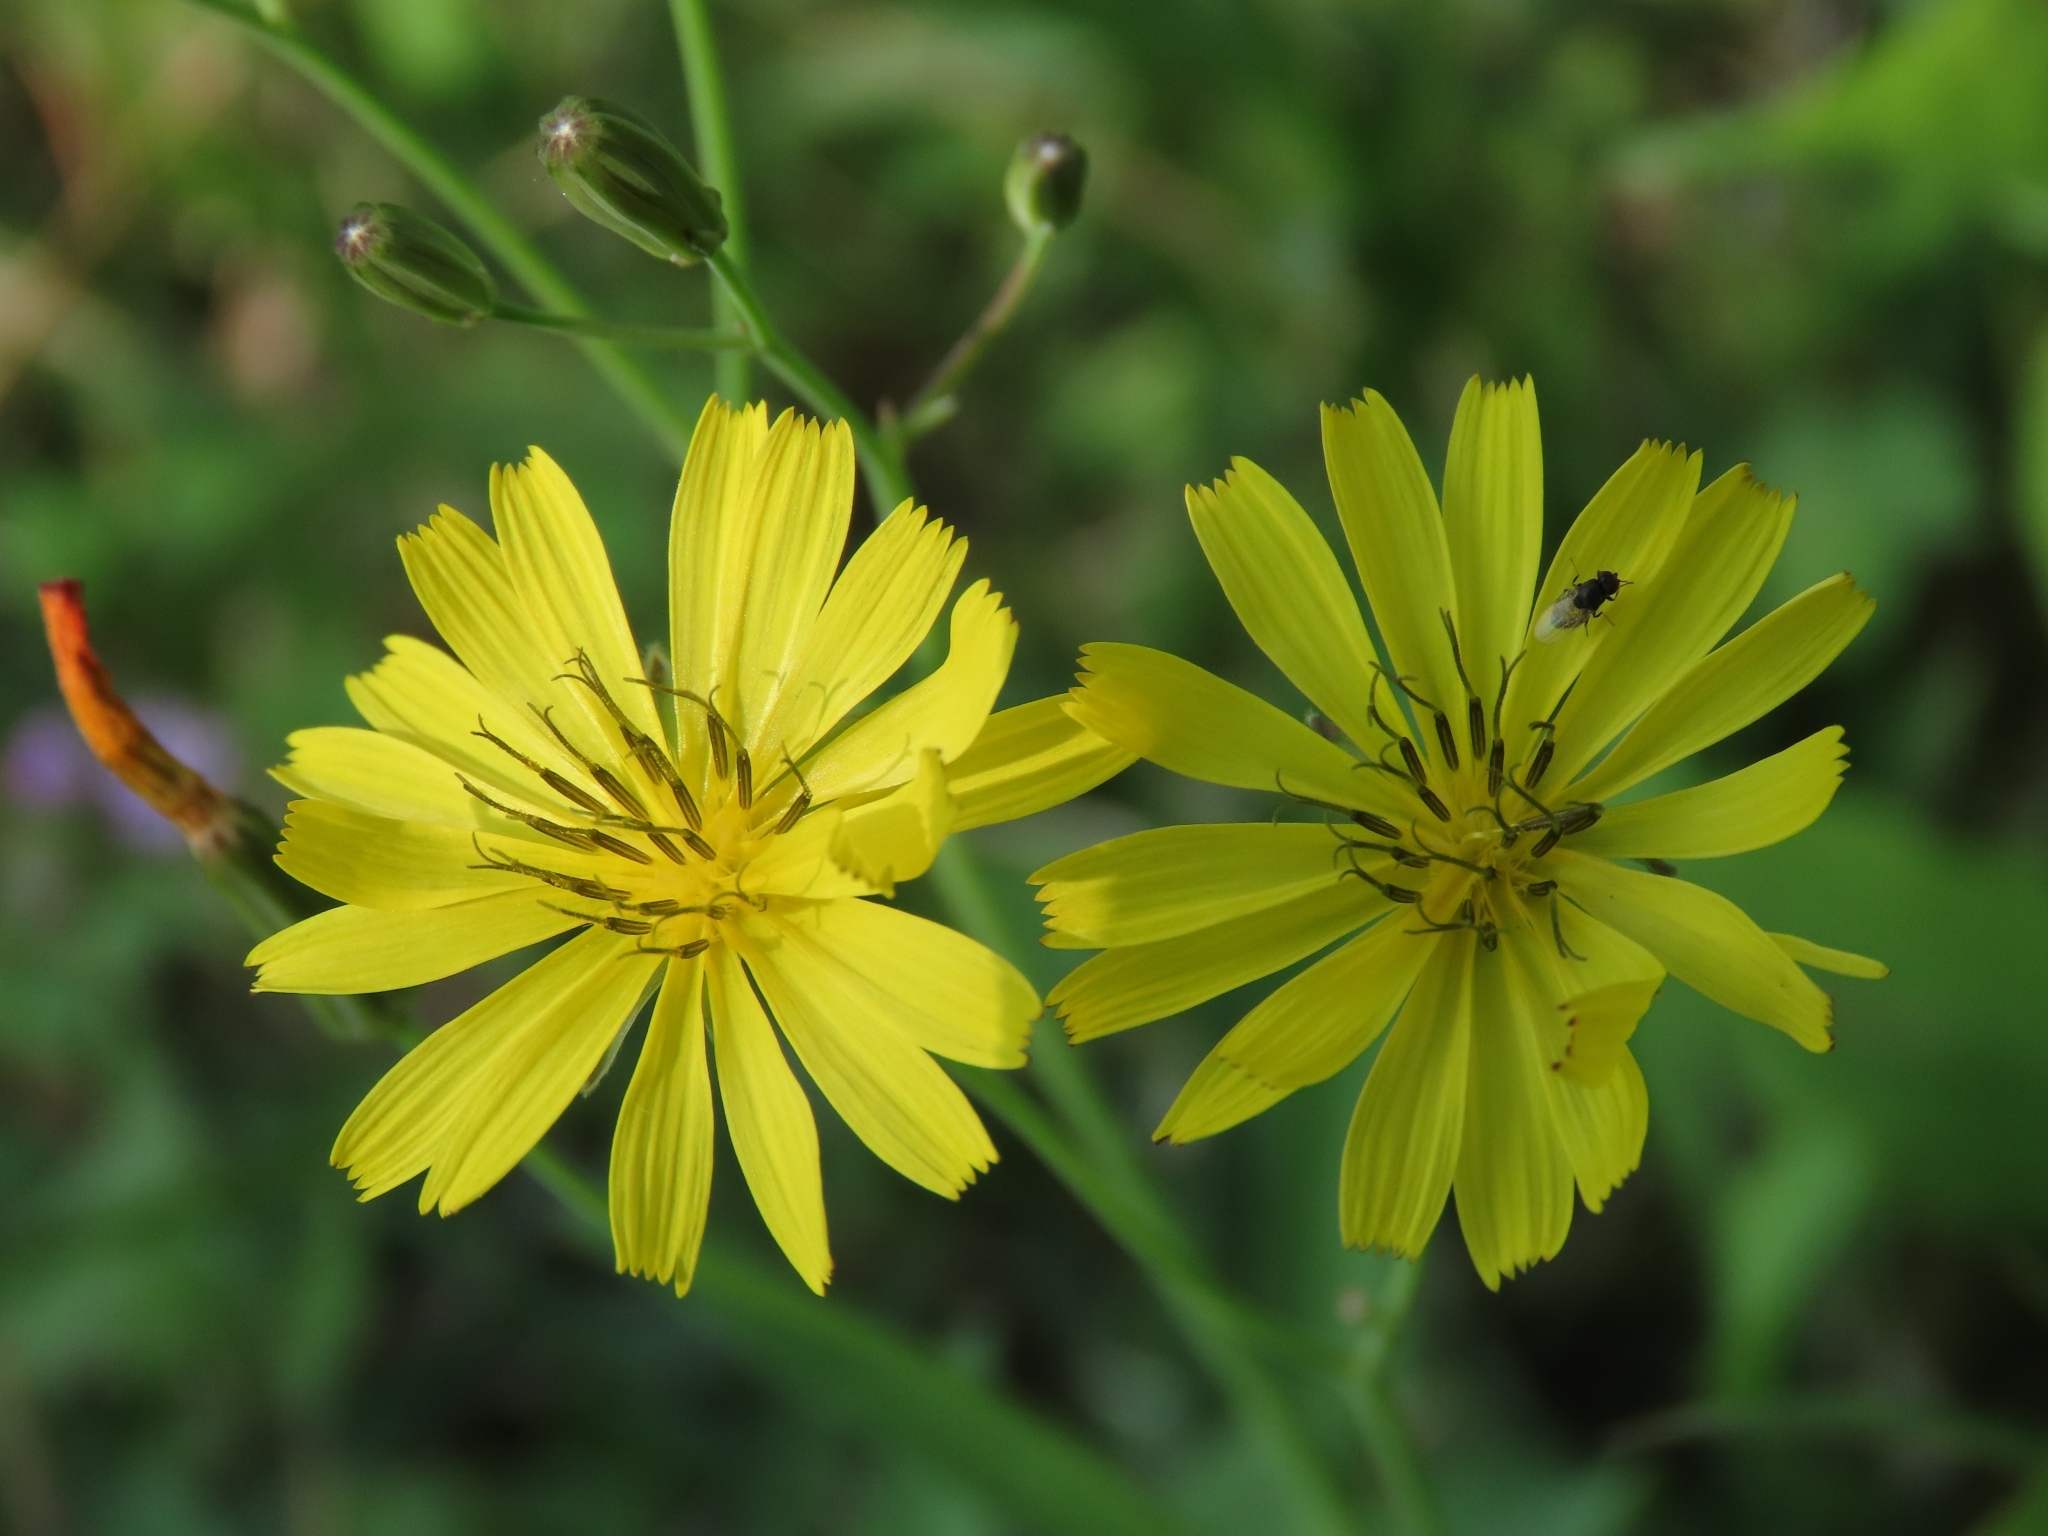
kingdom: Plantae
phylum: Tracheophyta
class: Magnoliopsida
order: Asterales
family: Asteraceae
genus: Ixeris
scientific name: Ixeris chinensis
